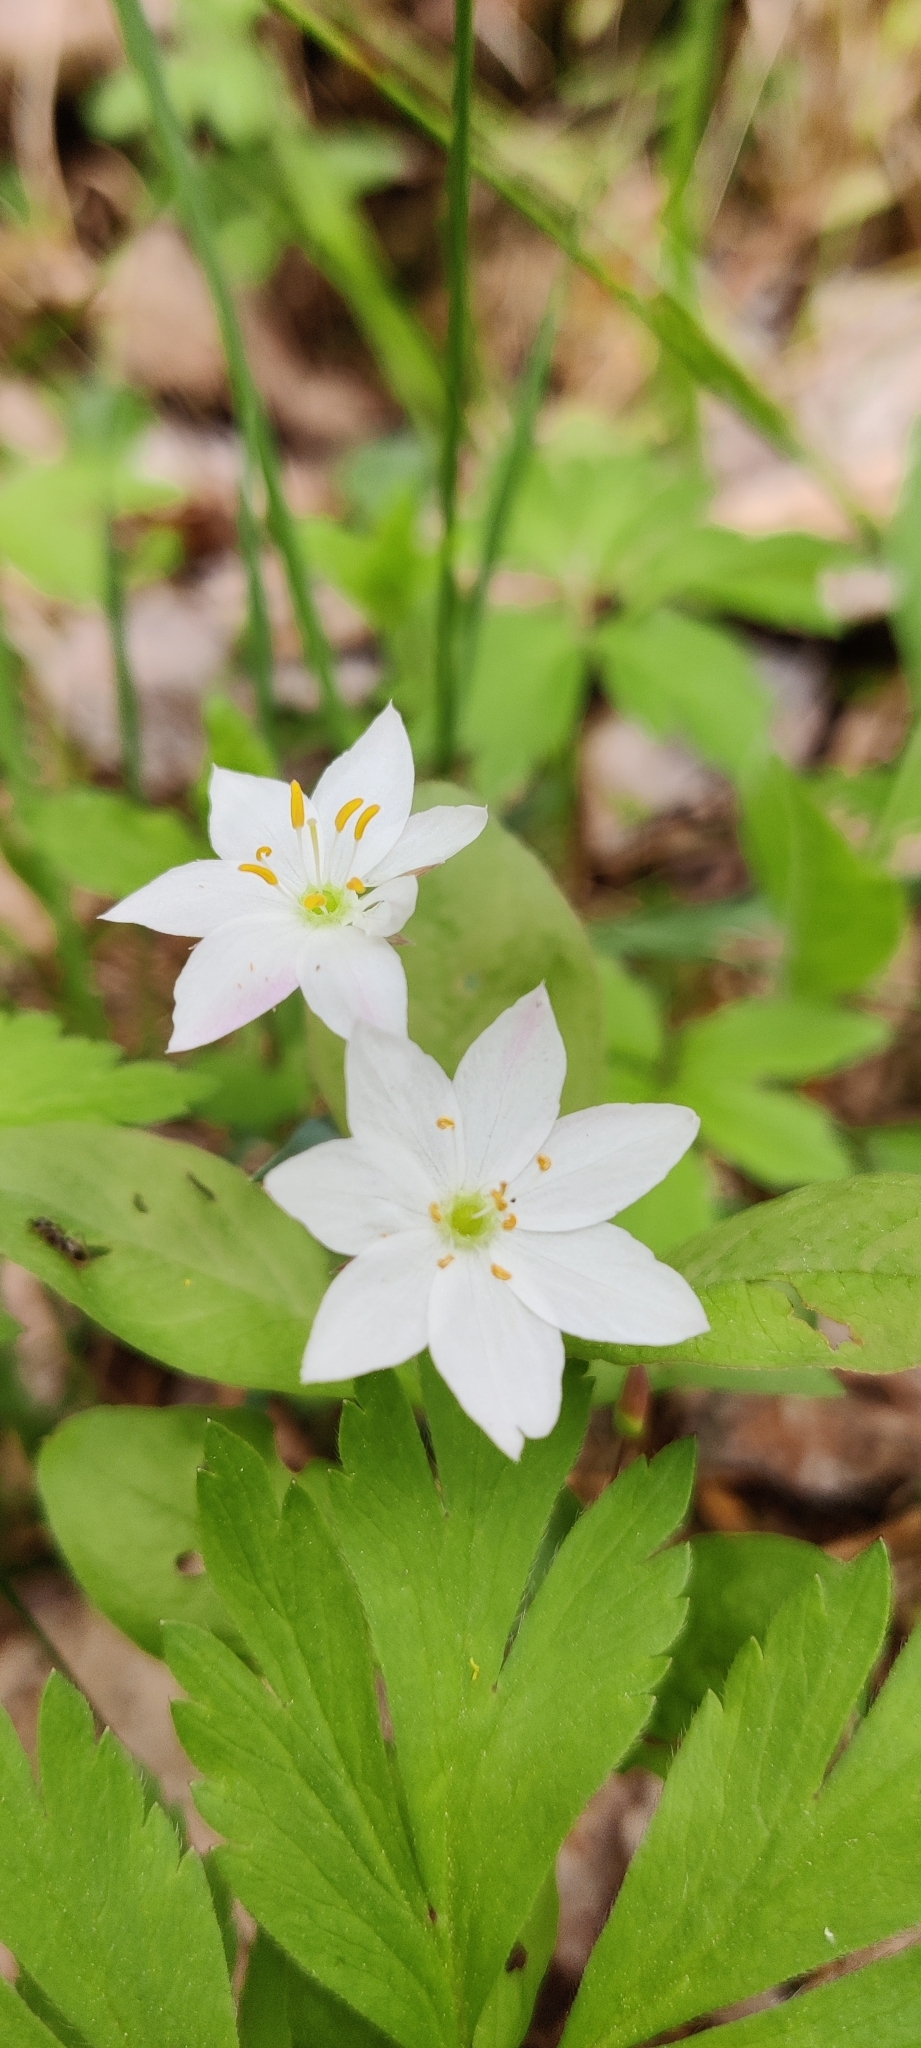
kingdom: Plantae
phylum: Tracheophyta
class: Magnoliopsida
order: Ericales
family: Primulaceae
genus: Lysimachia
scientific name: Lysimachia europaea
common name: Arctic starflower
